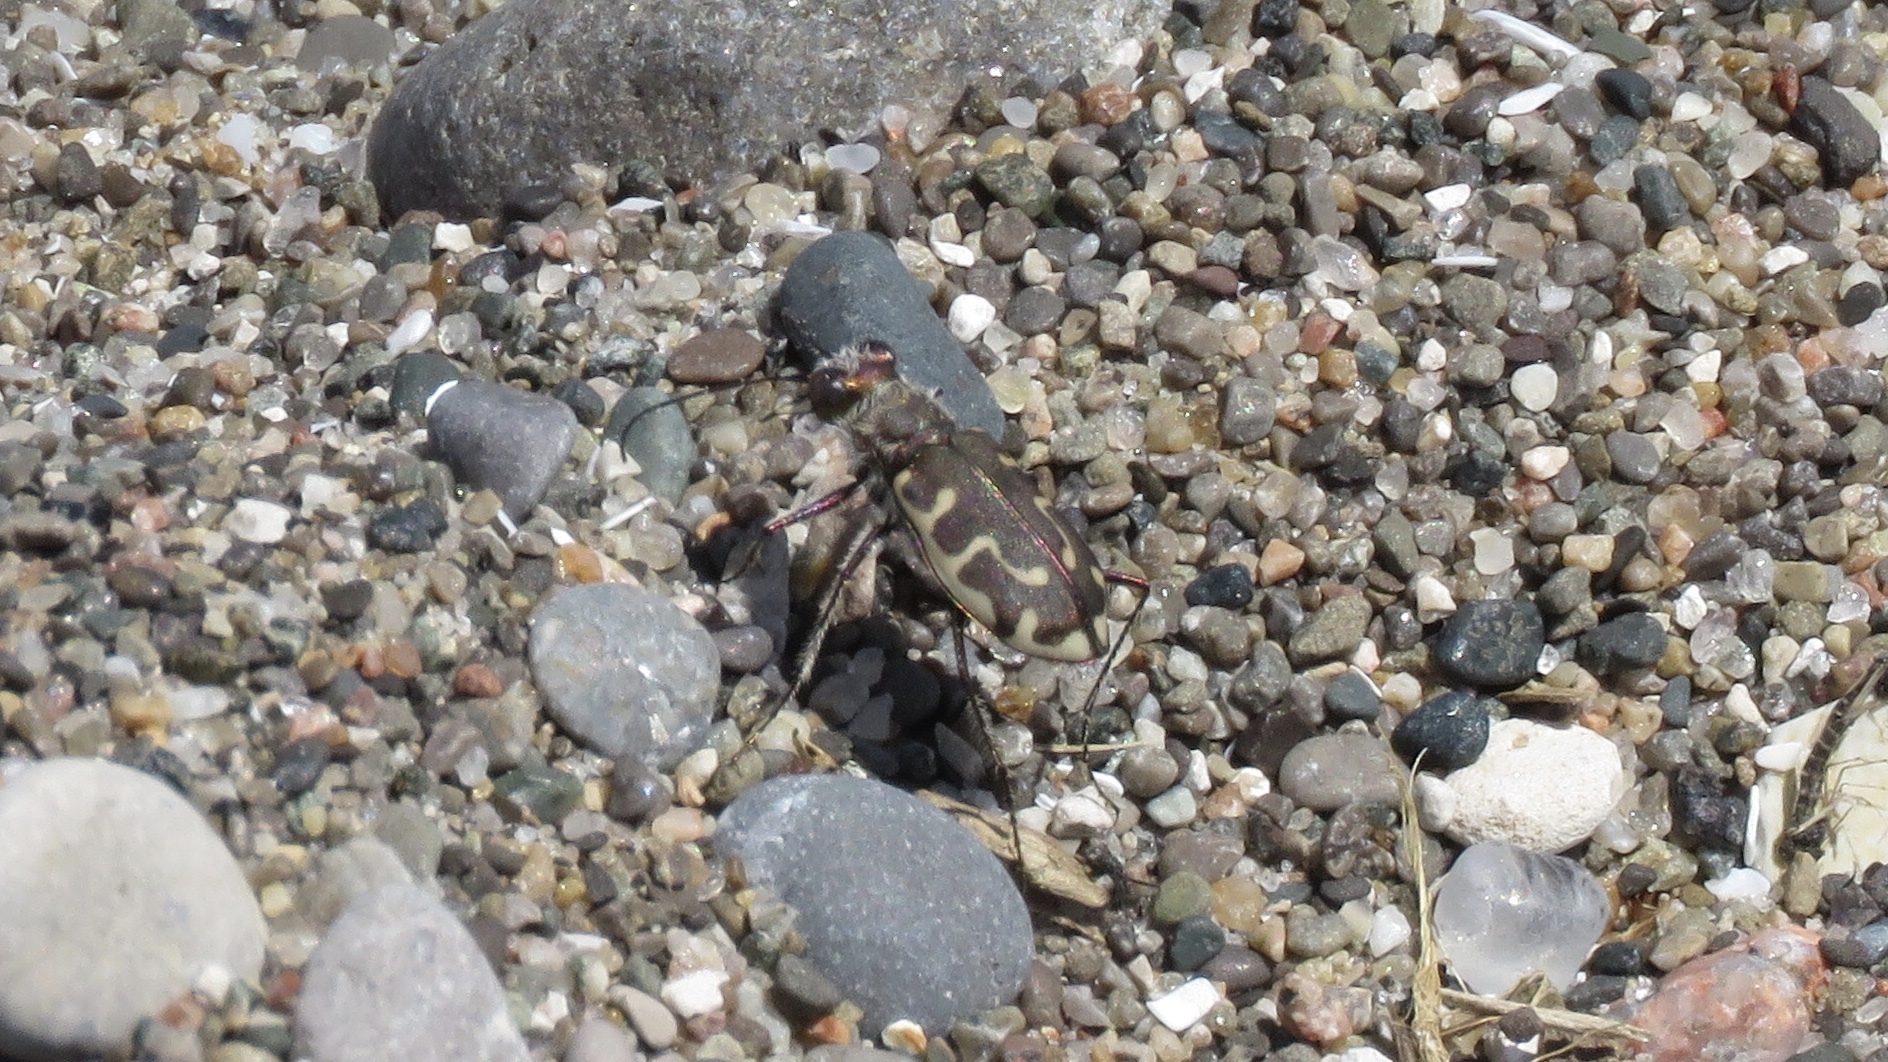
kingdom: Animalia
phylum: Arthropoda
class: Insecta
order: Coleoptera
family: Carabidae
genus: Cicindela
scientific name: Cicindela hirticollis
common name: Hairy-necked tiger beetle
